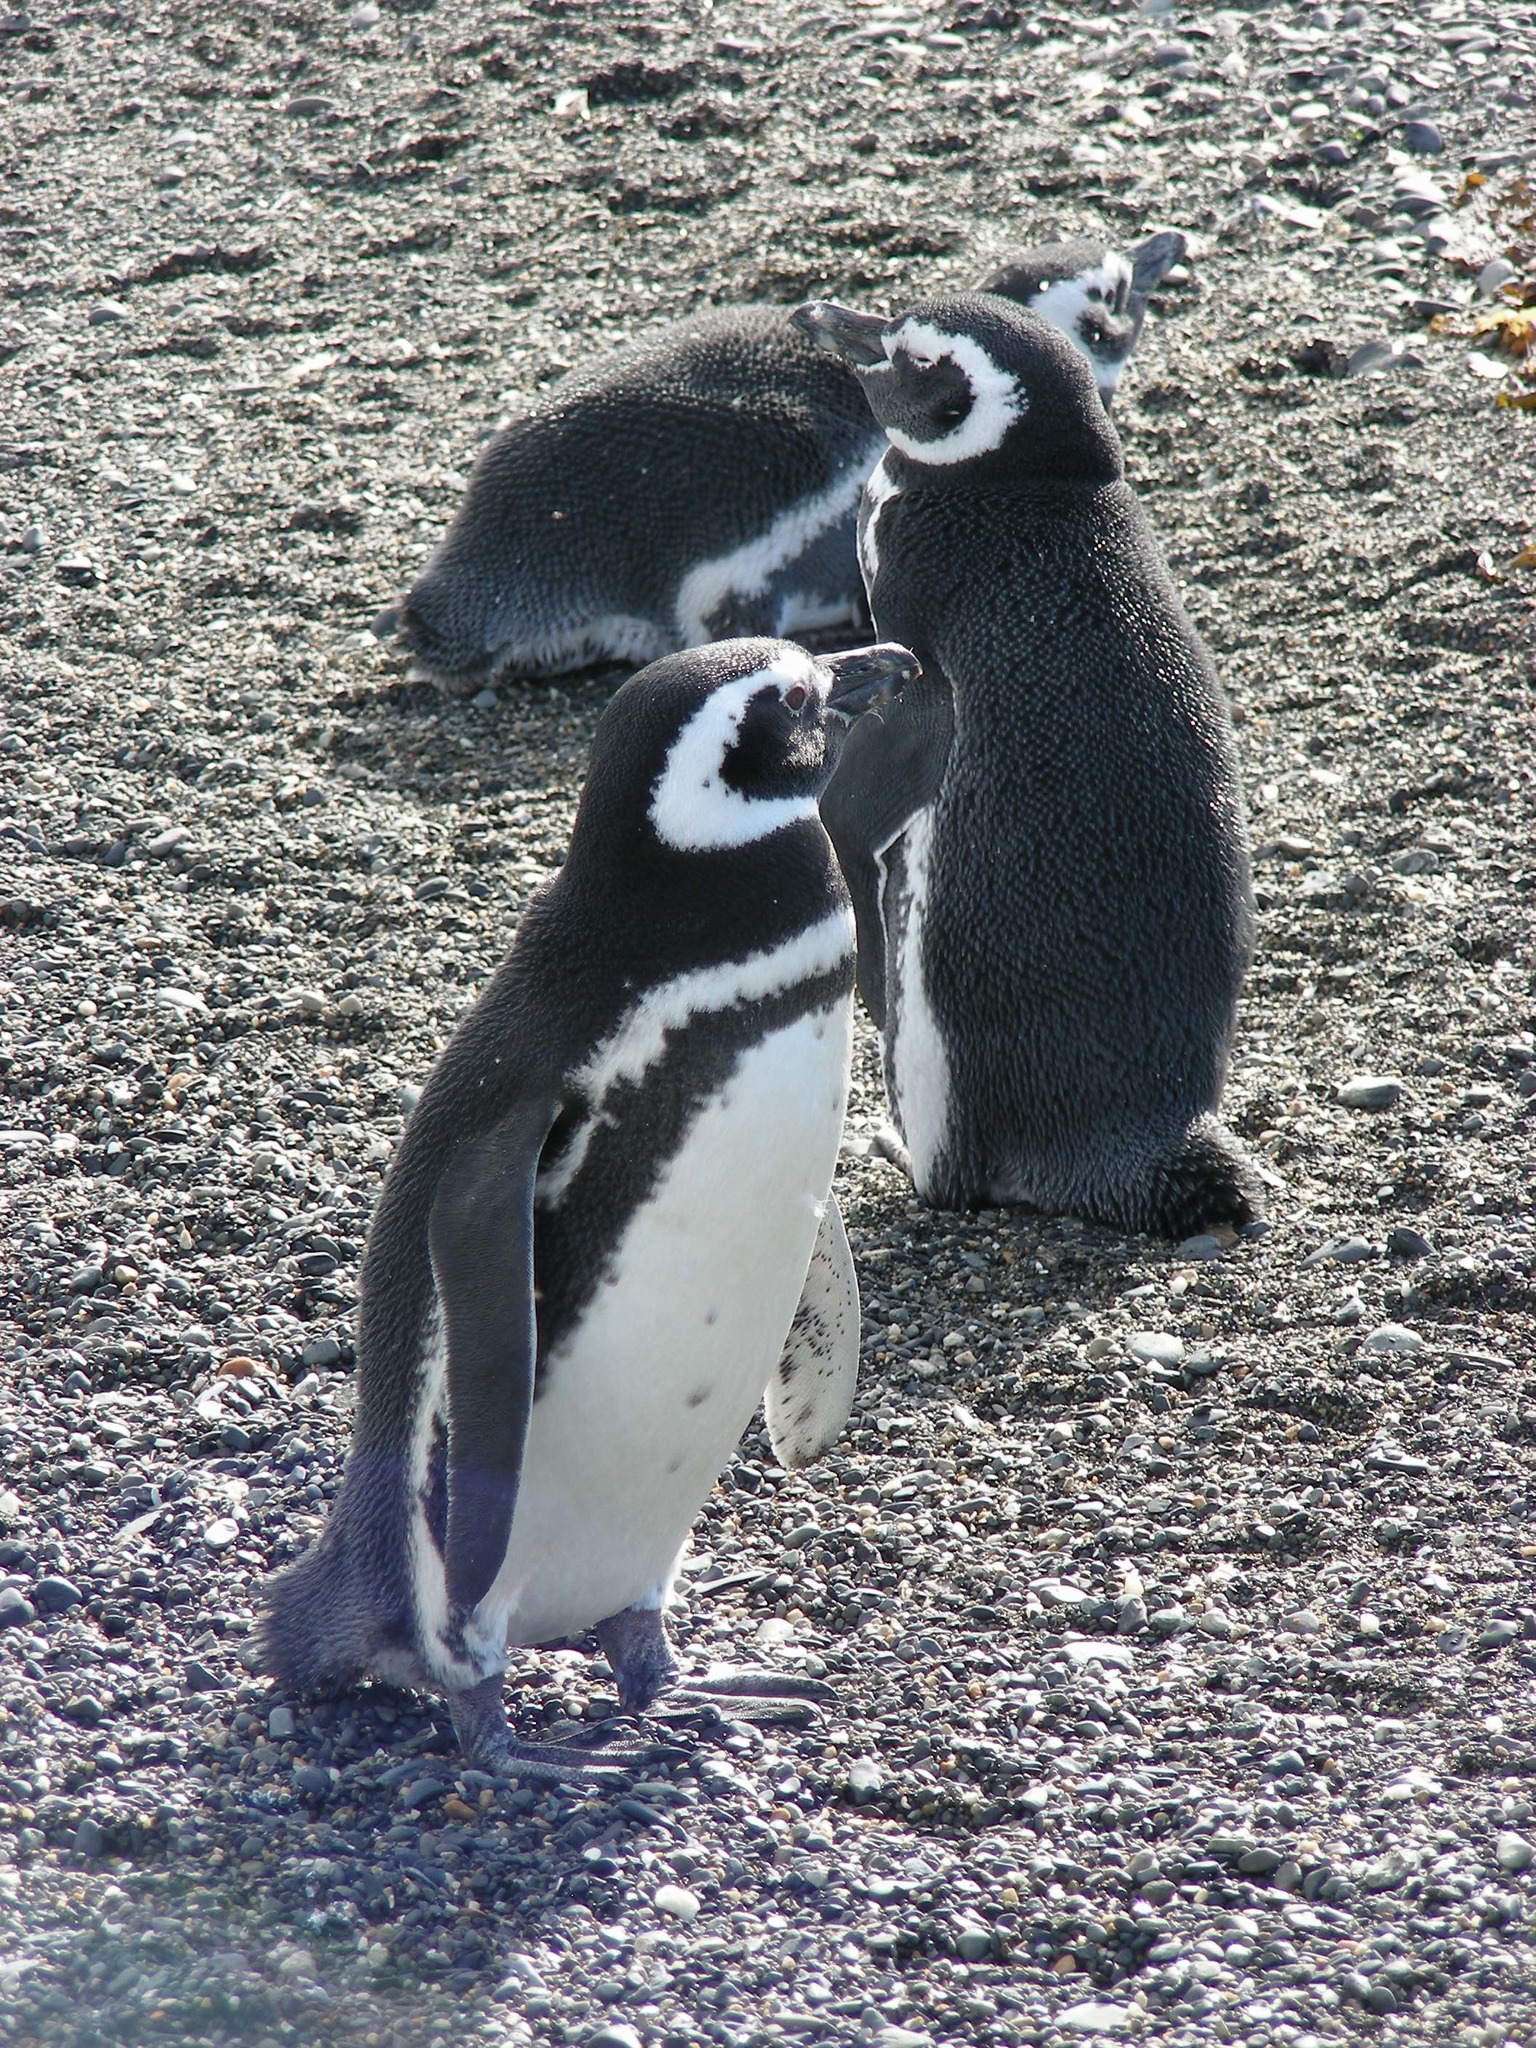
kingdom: Animalia
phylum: Chordata
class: Aves
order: Sphenisciformes
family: Spheniscidae
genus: Spheniscus
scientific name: Spheniscus magellanicus
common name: Magellanic penguin
